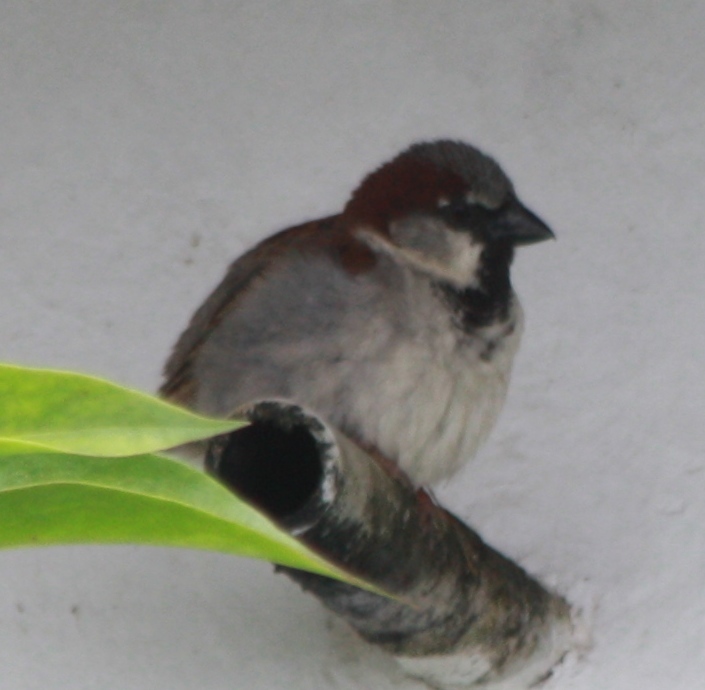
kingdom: Animalia
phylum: Chordata
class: Aves
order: Passeriformes
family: Passeridae
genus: Passer
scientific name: Passer domesticus
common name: House sparrow
